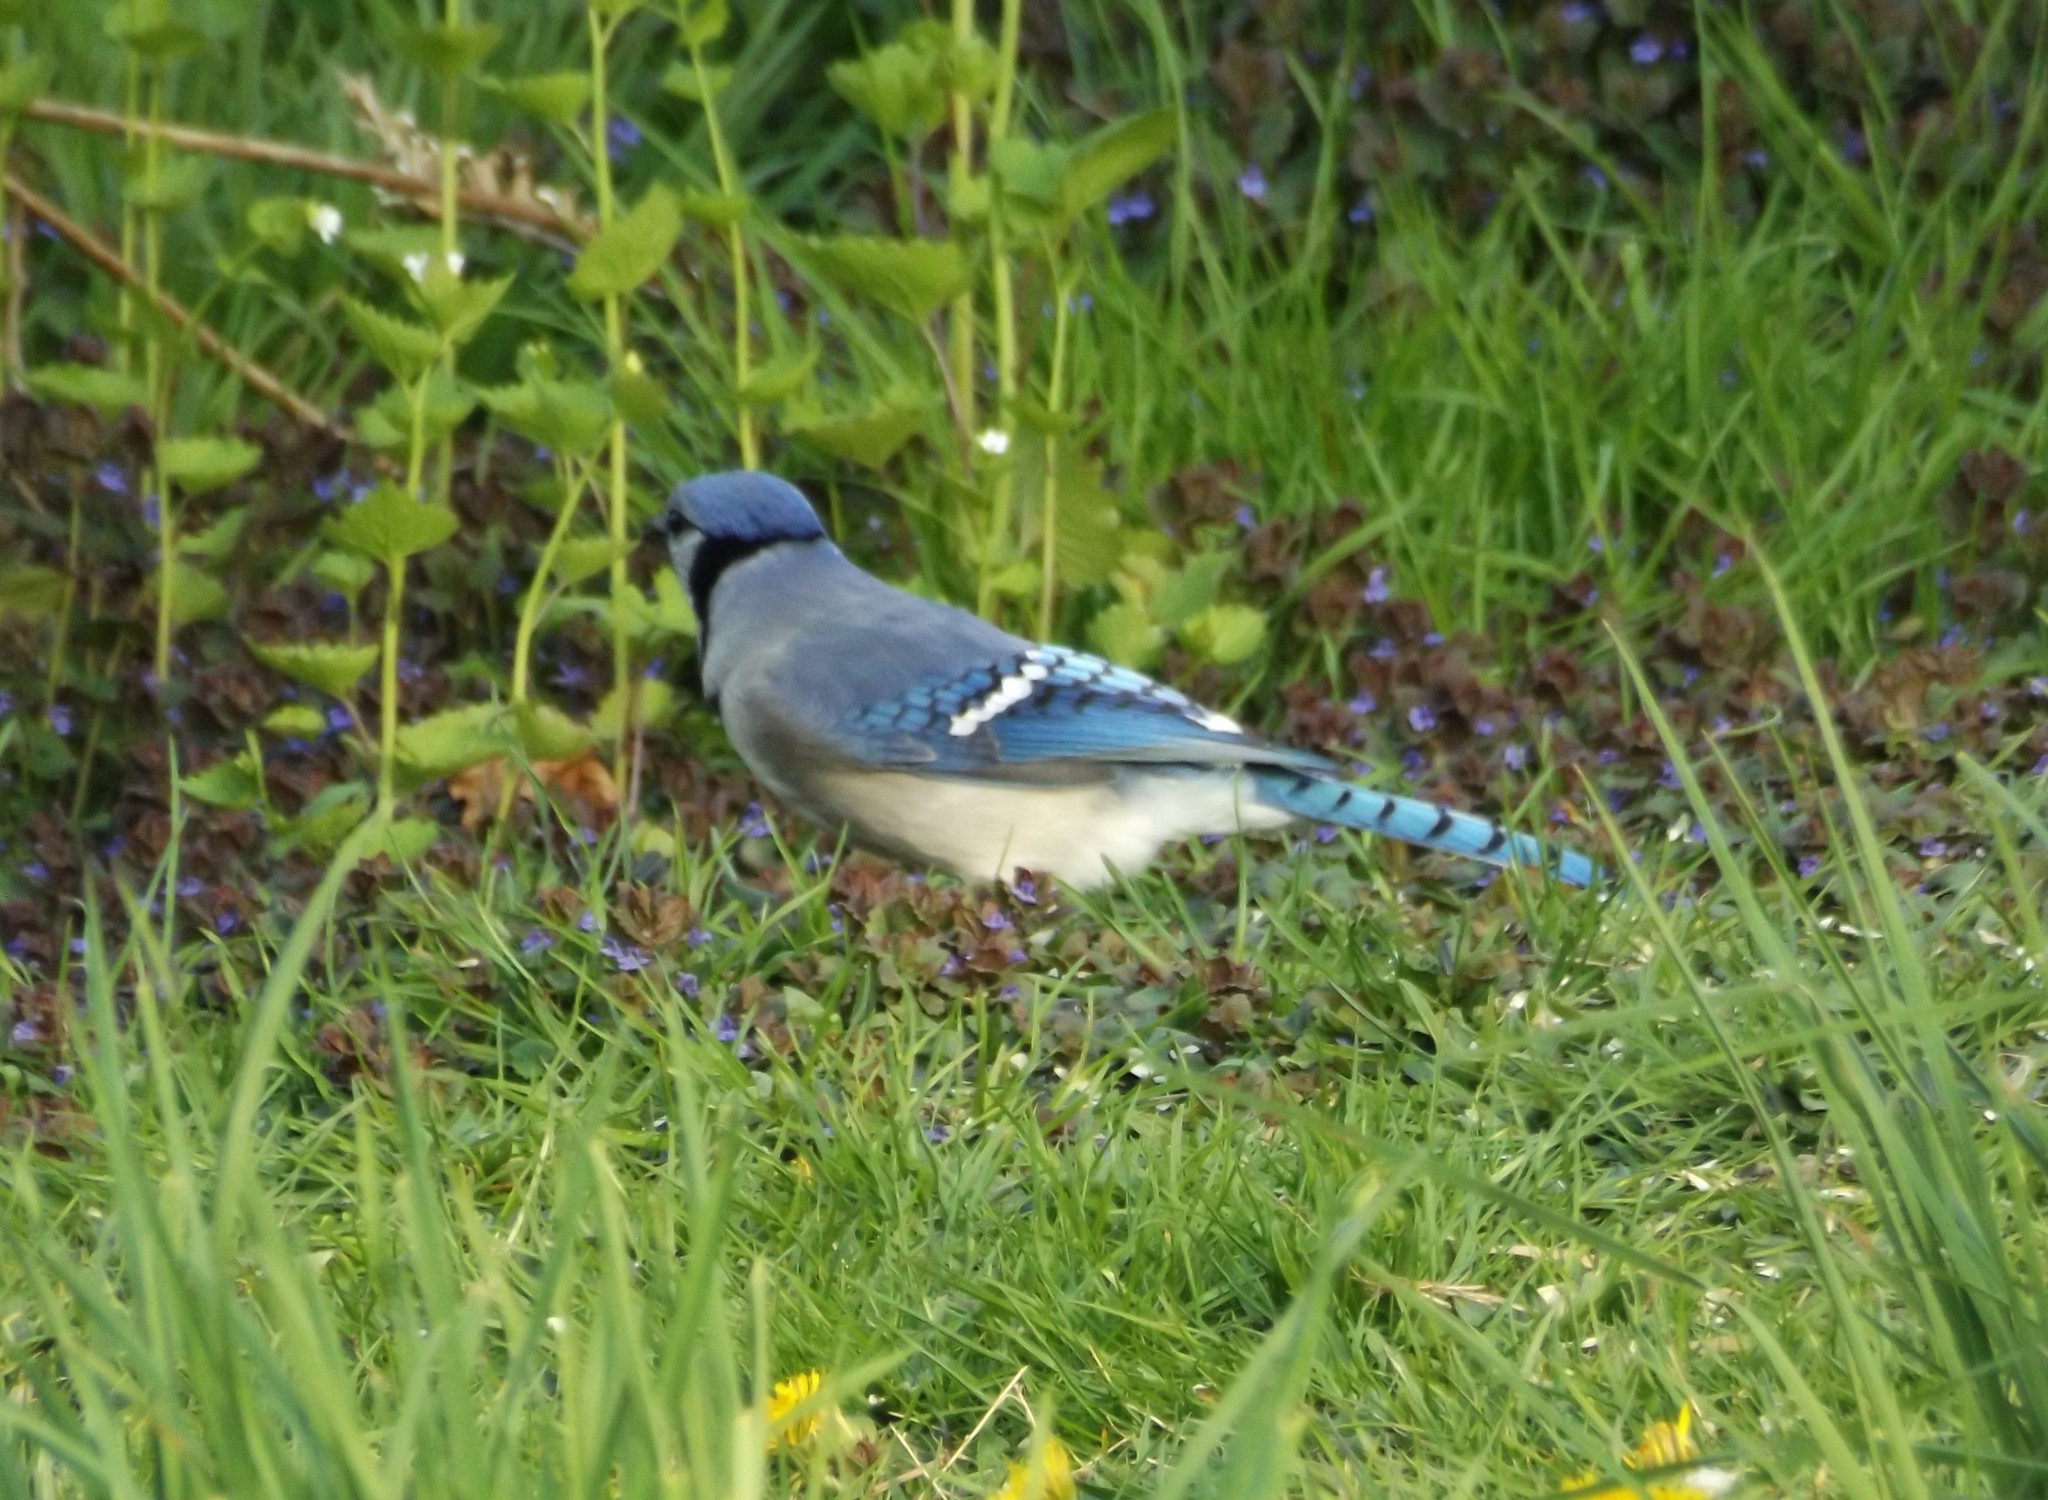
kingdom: Animalia
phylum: Chordata
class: Aves
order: Passeriformes
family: Corvidae
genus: Cyanocitta
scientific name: Cyanocitta cristata
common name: Blue jay
